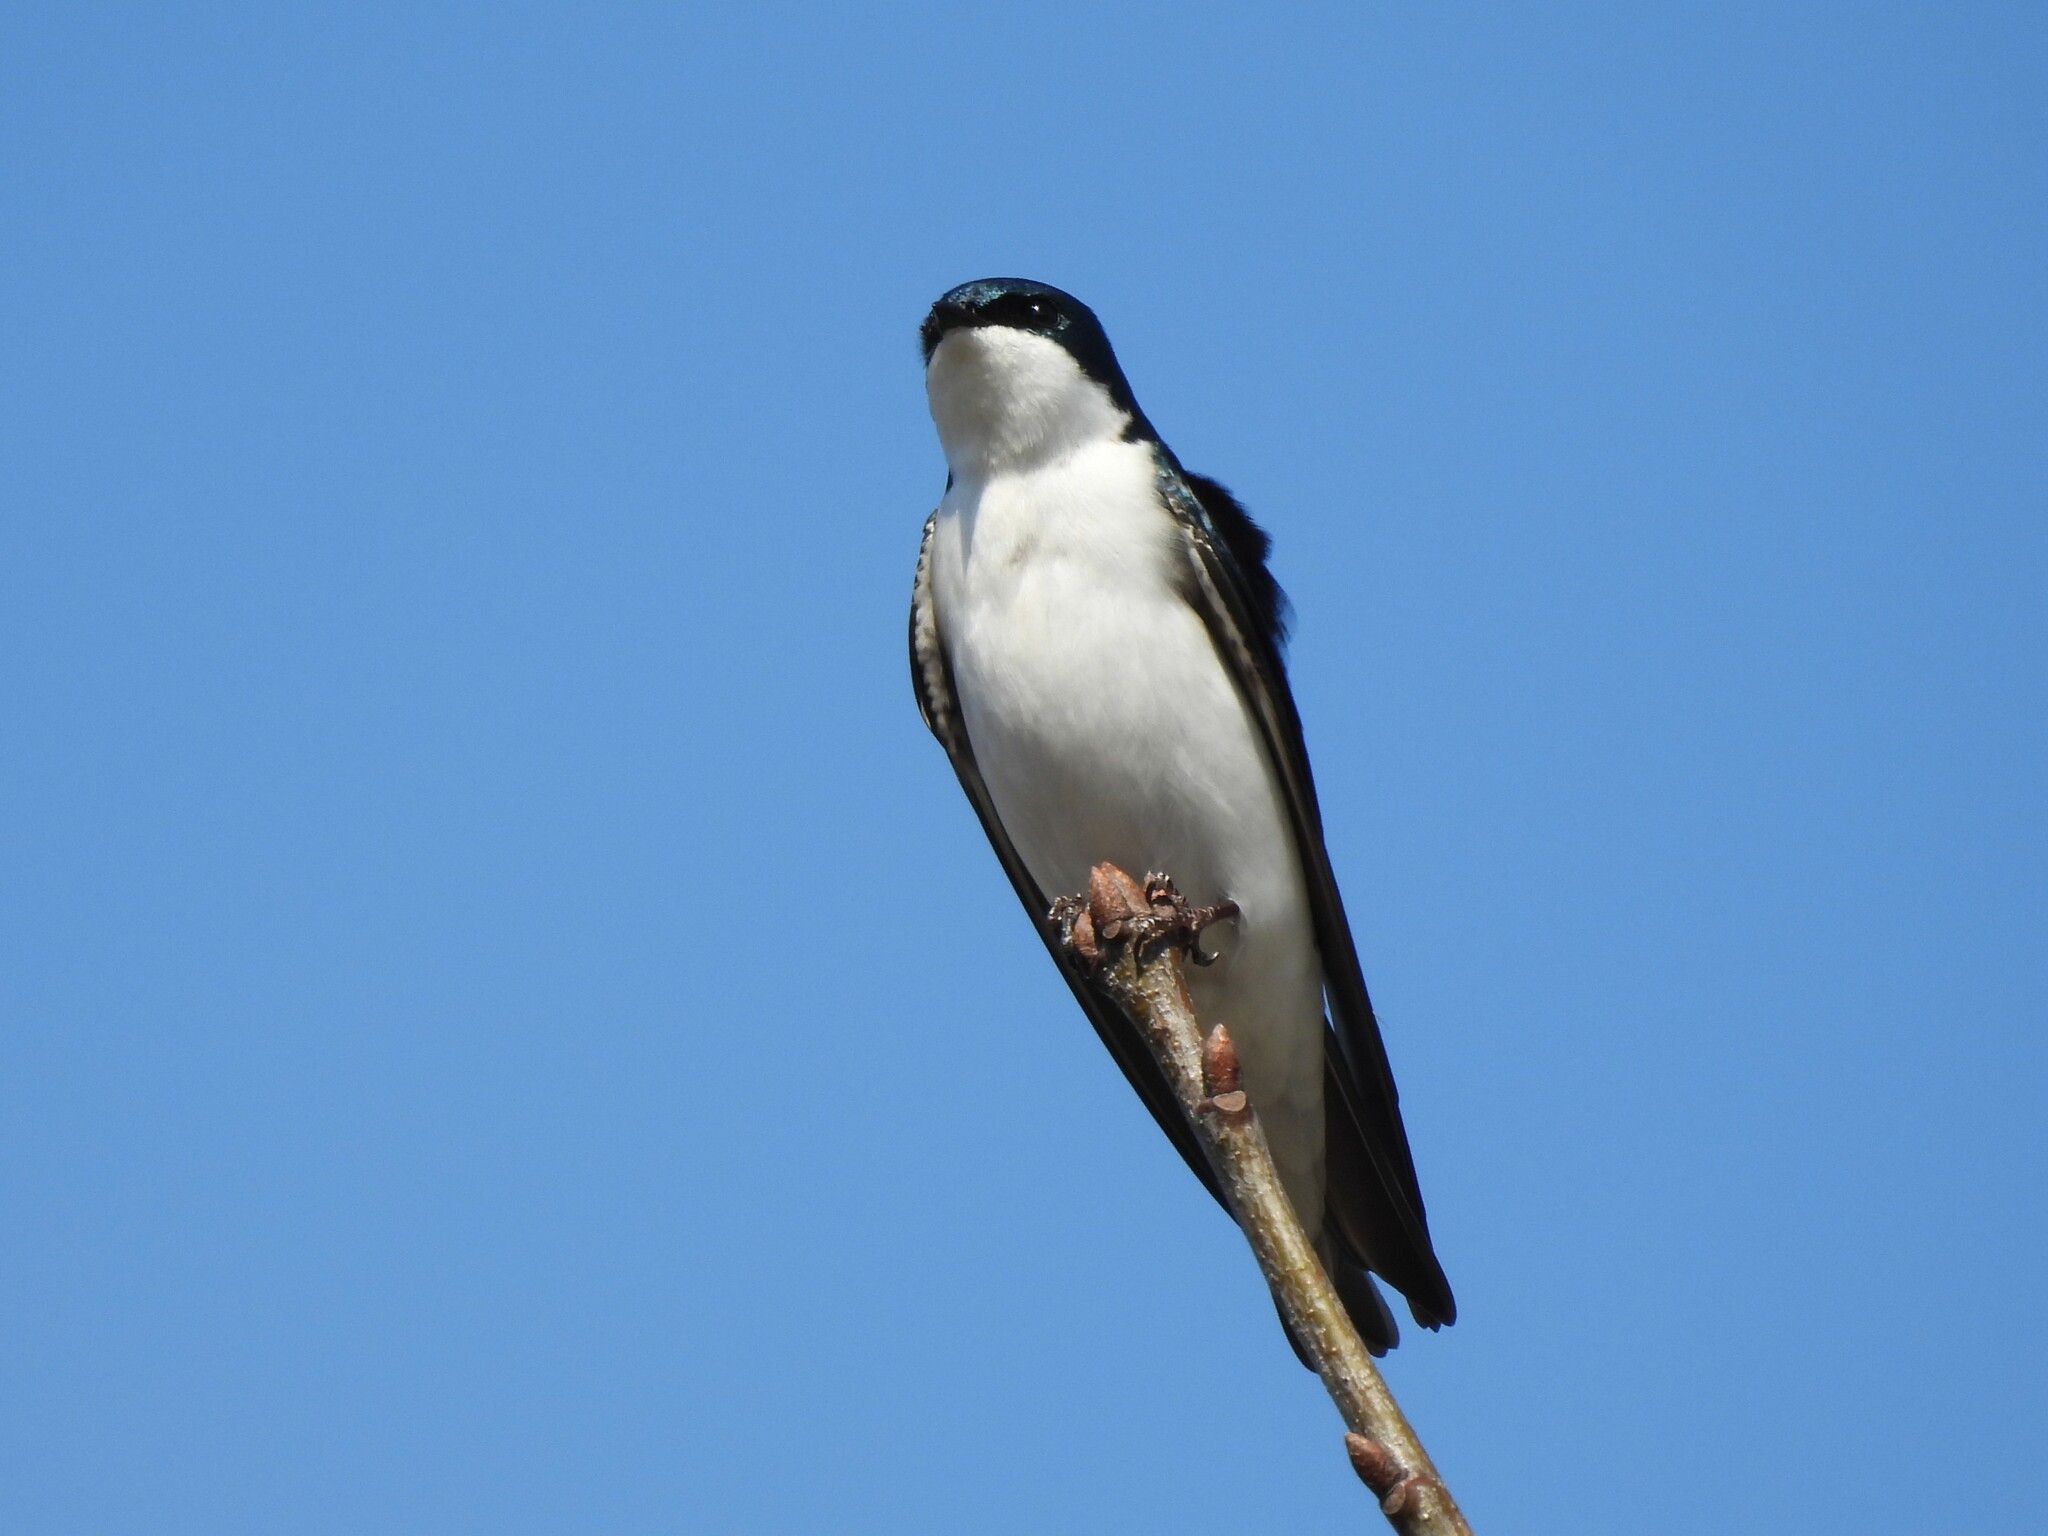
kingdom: Animalia
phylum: Chordata
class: Aves
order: Passeriformes
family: Hirundinidae
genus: Tachycineta
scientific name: Tachycineta bicolor
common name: Tree swallow
